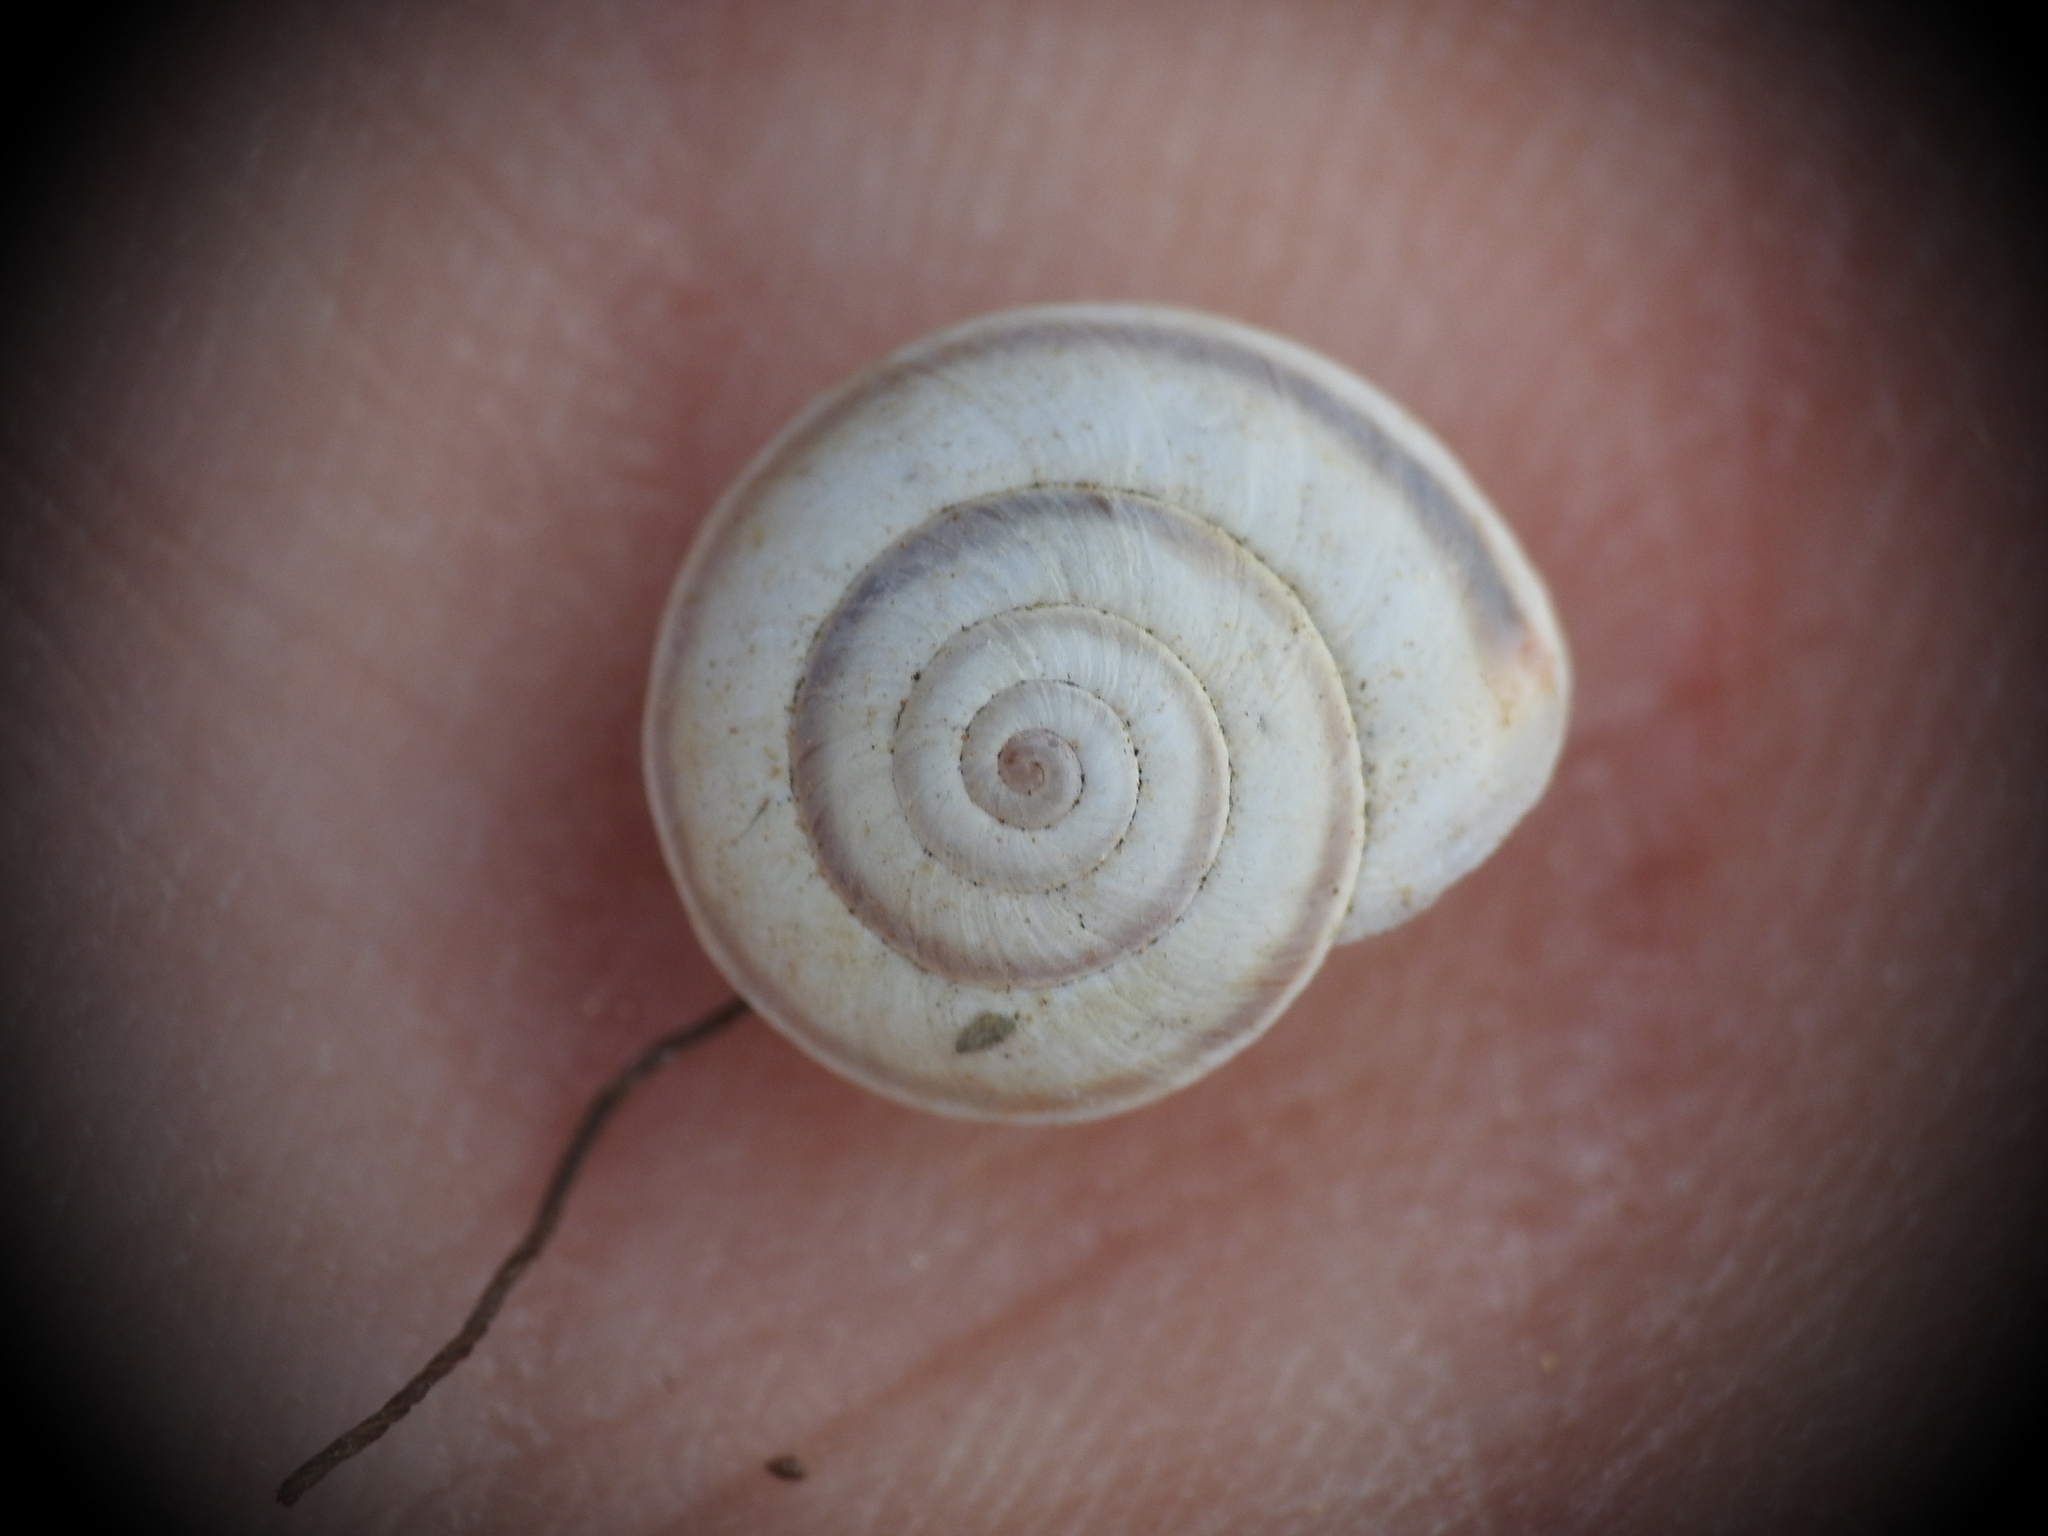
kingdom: Animalia
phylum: Mollusca
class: Gastropoda
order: Stylommatophora
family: Geomitridae
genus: Cernuella
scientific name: Cernuella virgata
